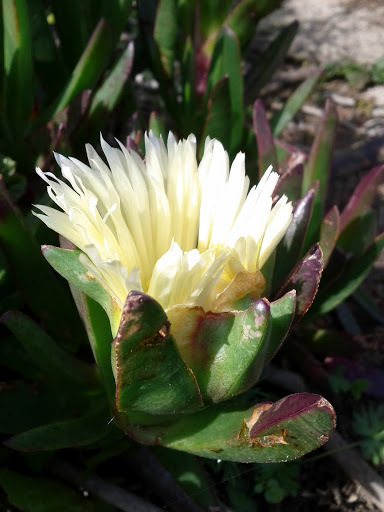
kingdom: Plantae
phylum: Tracheophyta
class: Magnoliopsida
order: Caryophyllales
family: Aizoaceae
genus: Carpobrotus
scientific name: Carpobrotus edulis
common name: Hottentot-fig
